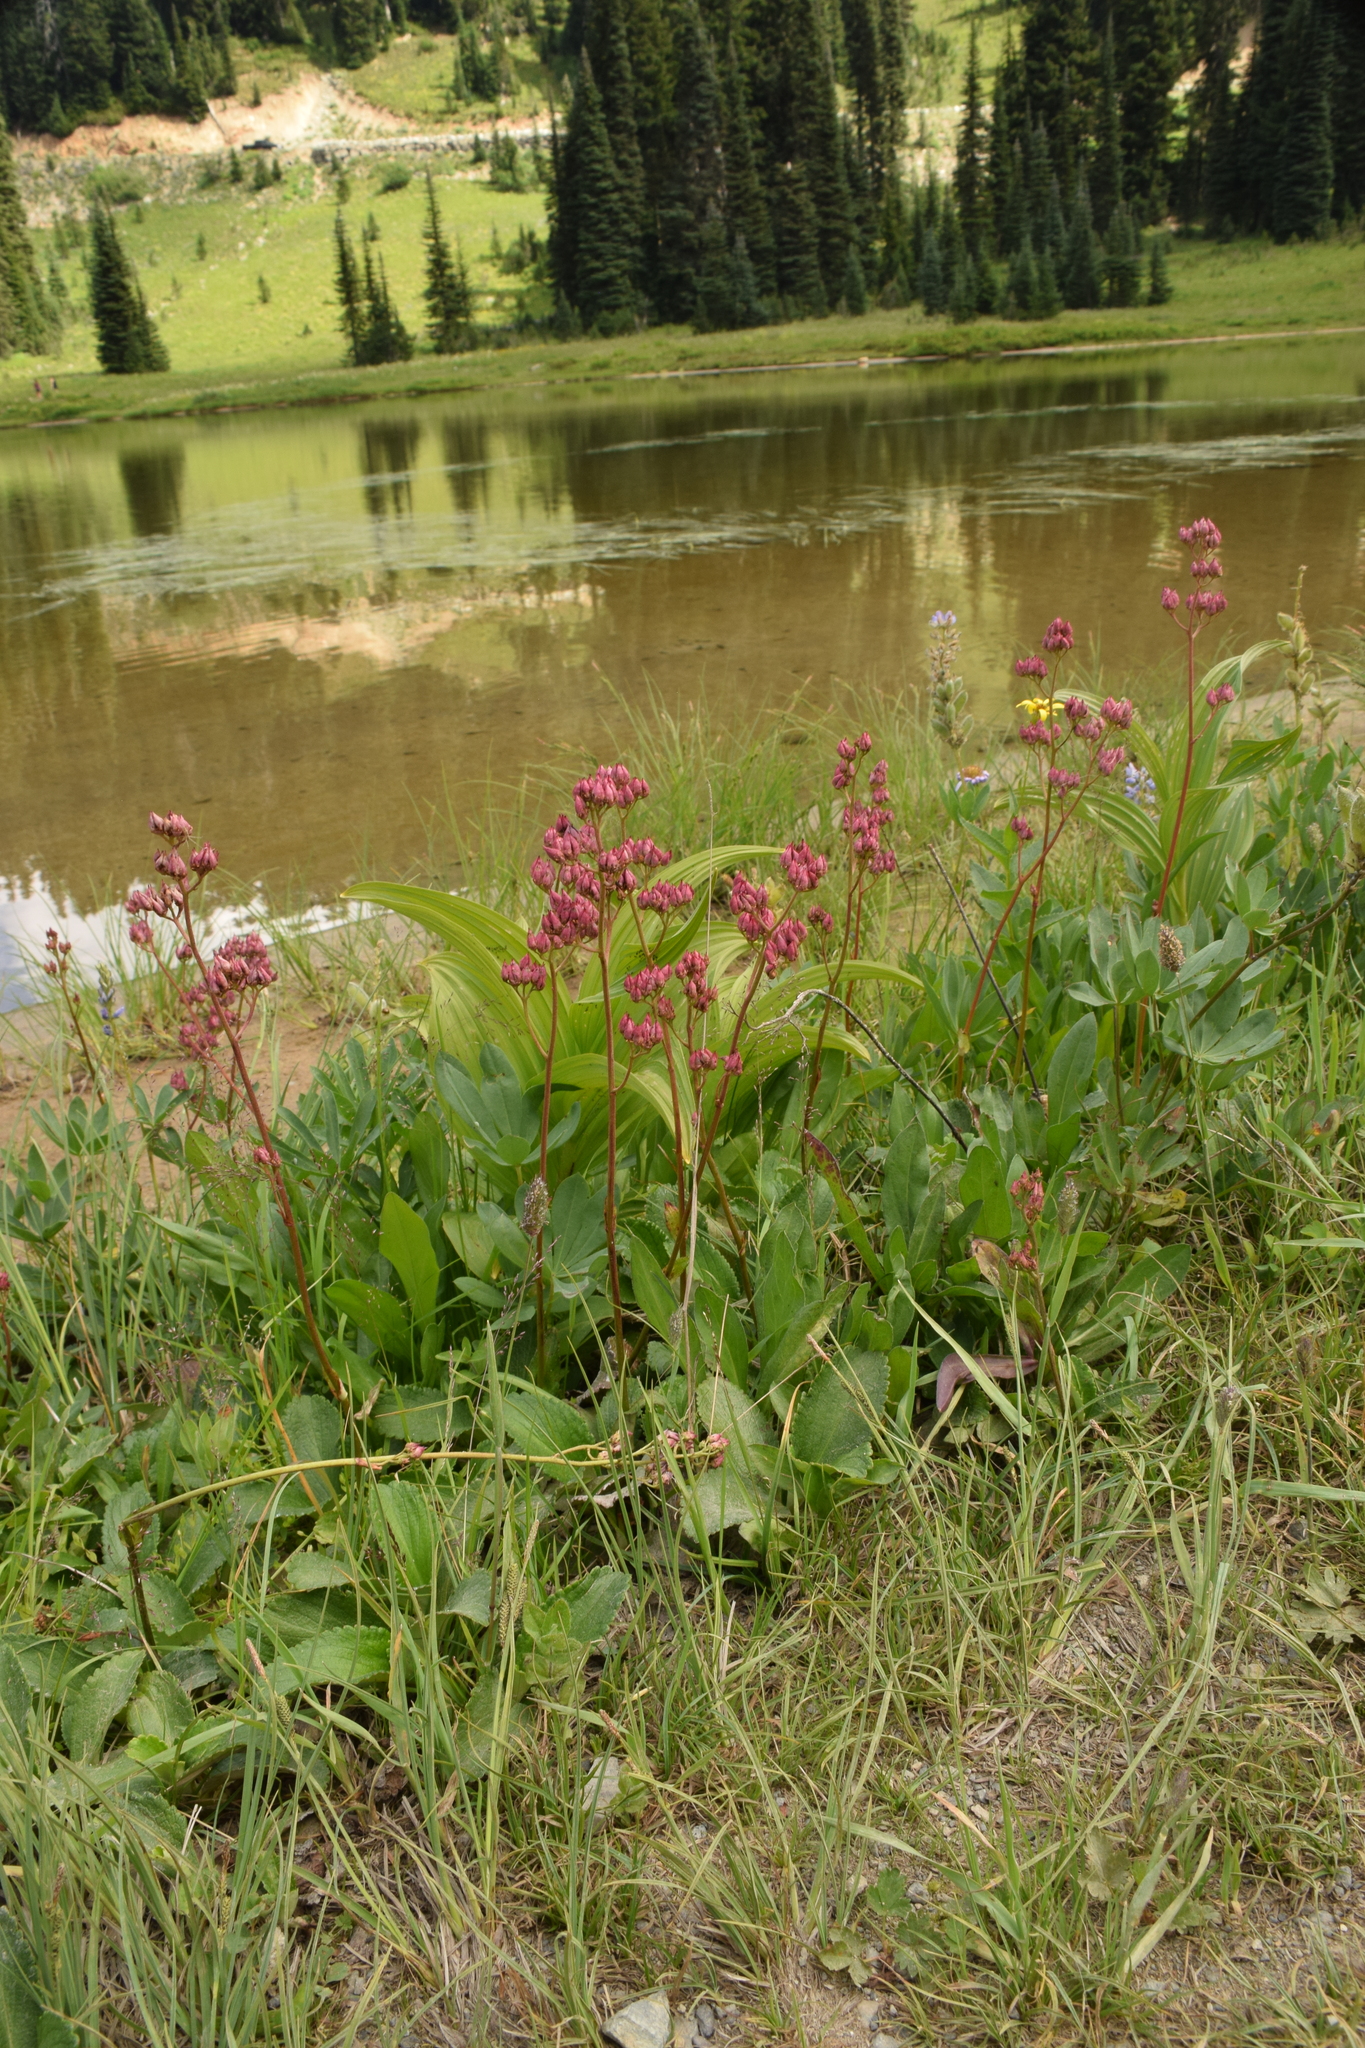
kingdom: Plantae
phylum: Tracheophyta
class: Magnoliopsida
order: Saxifragales
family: Saxifragaceae
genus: Leptarrhena
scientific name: Leptarrhena pyrolifolia
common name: Leatherleaf-saxifrage
